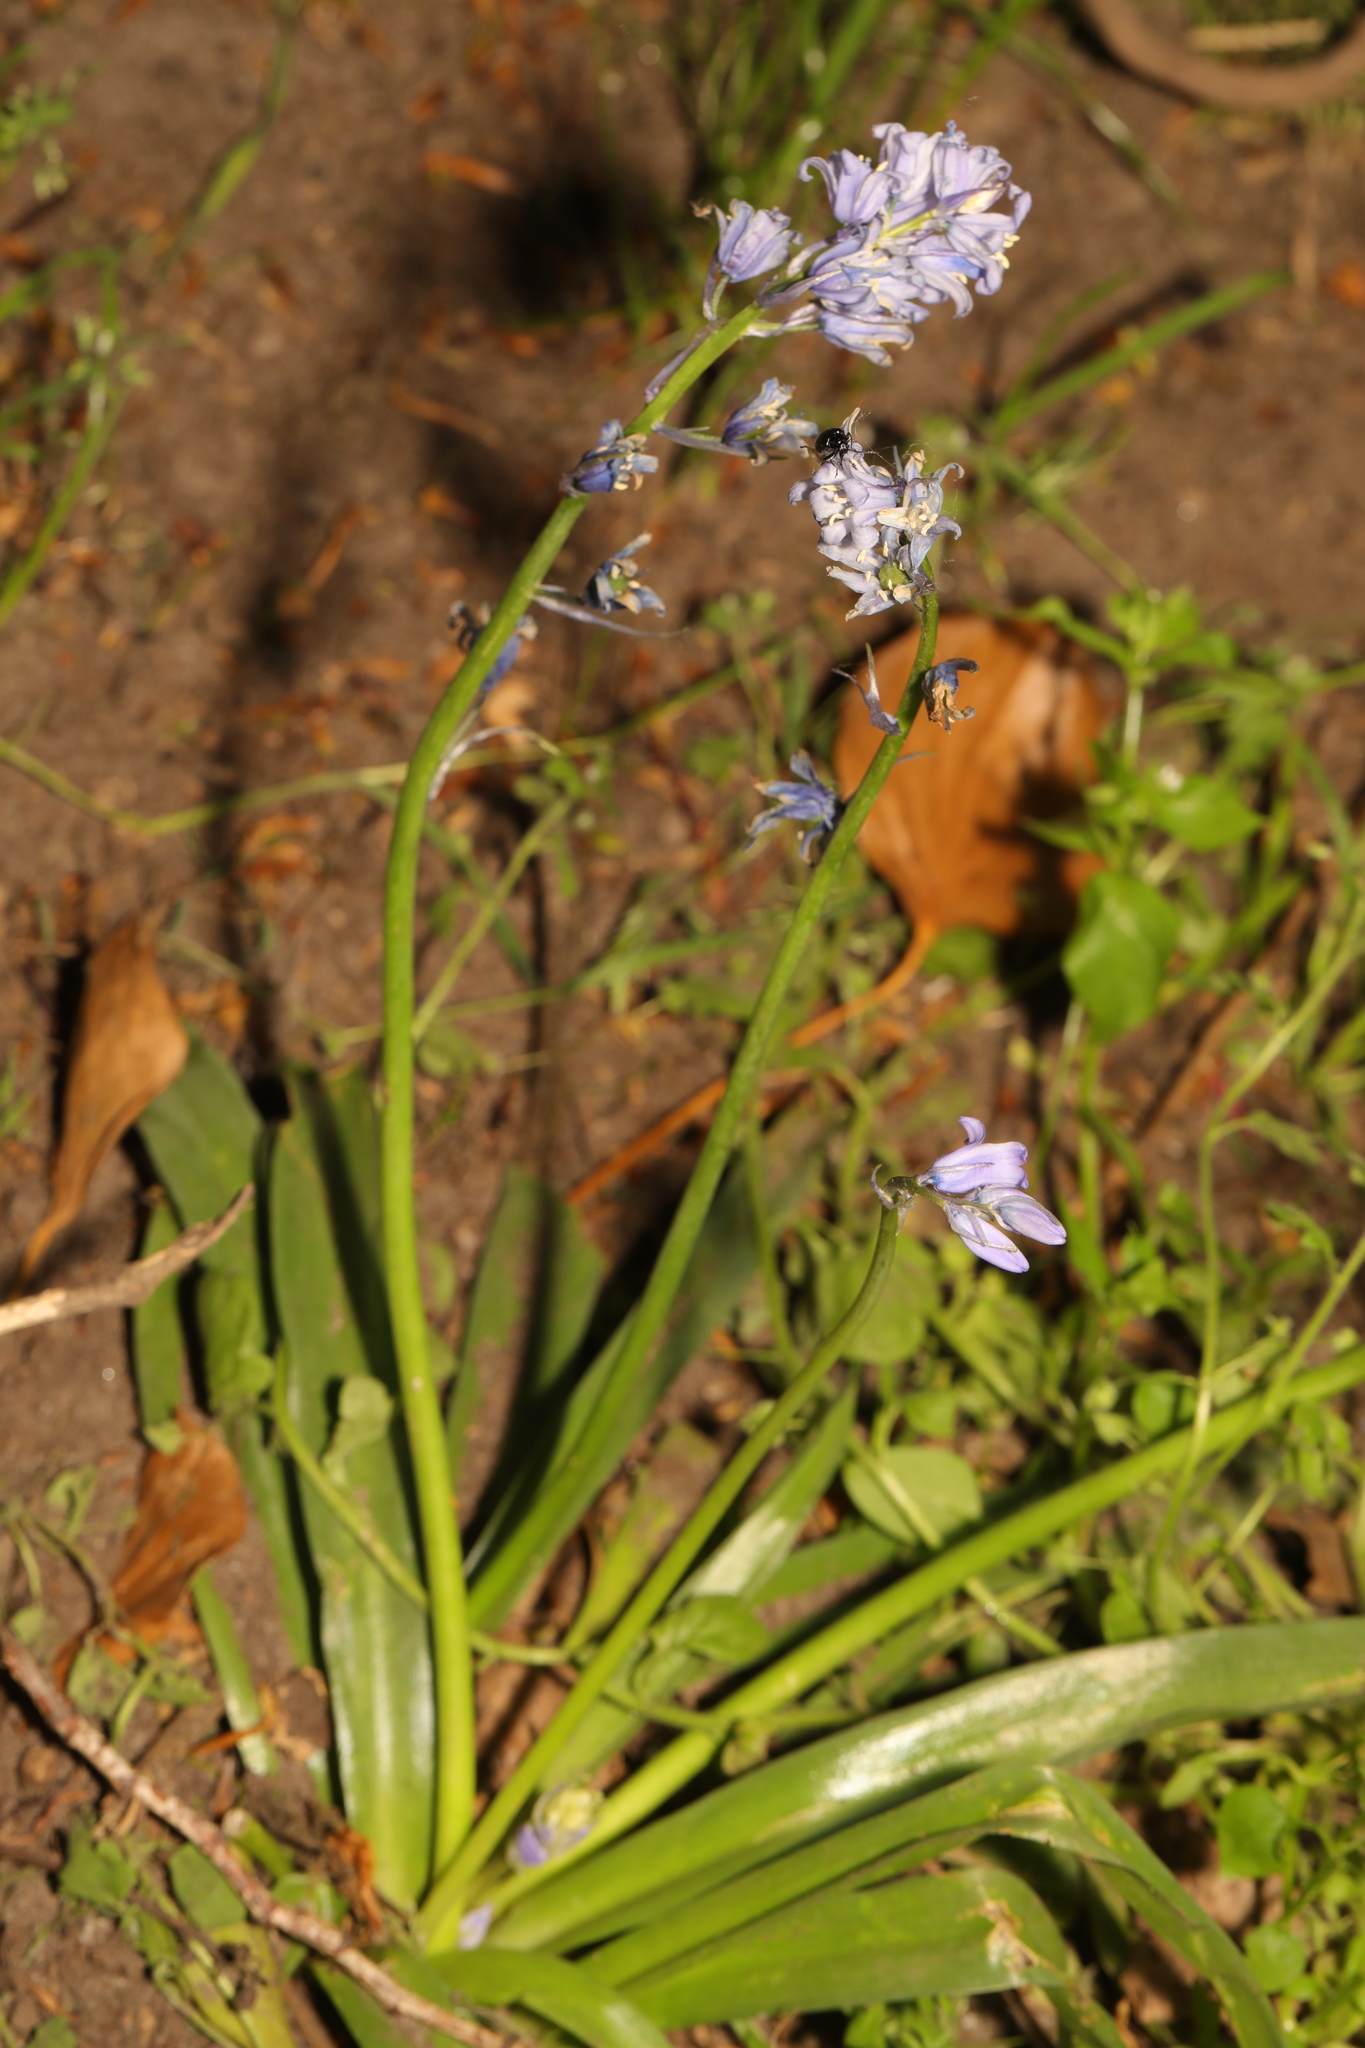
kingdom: Plantae
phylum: Tracheophyta
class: Liliopsida
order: Asparagales
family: Asparagaceae
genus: Hyacinthoides
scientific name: Hyacinthoides massartiana
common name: Hyacinthoides
